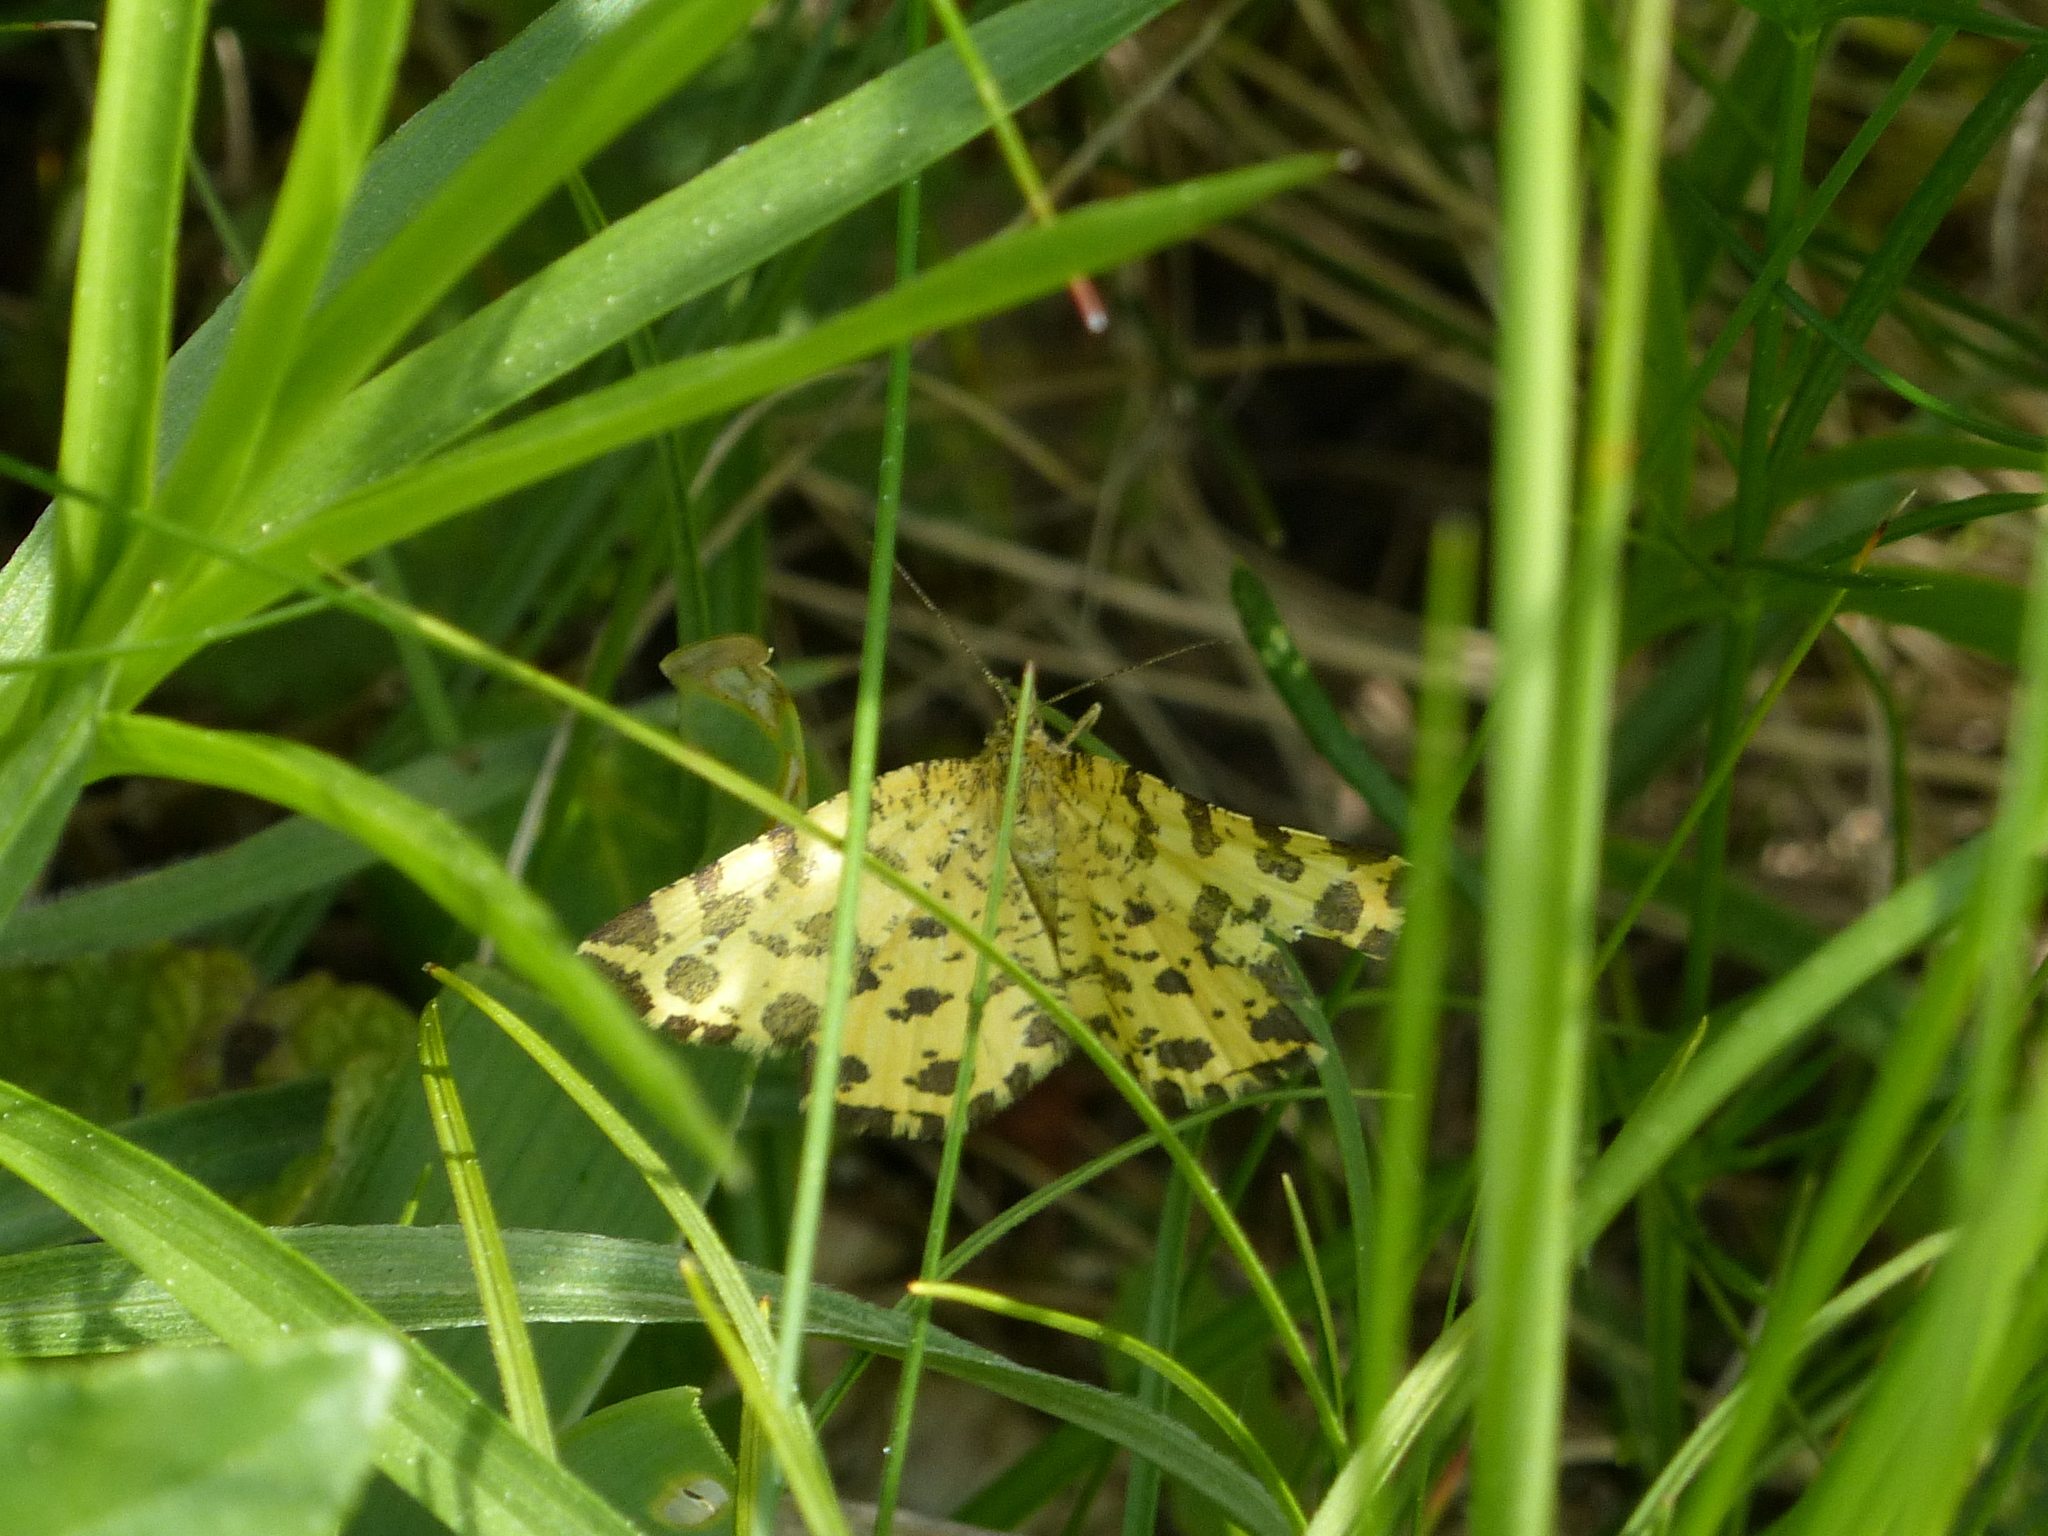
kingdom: Animalia
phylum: Arthropoda
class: Insecta
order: Lepidoptera
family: Geometridae
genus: Pseudopanthera
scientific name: Pseudopanthera macularia
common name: Speckled yellow
